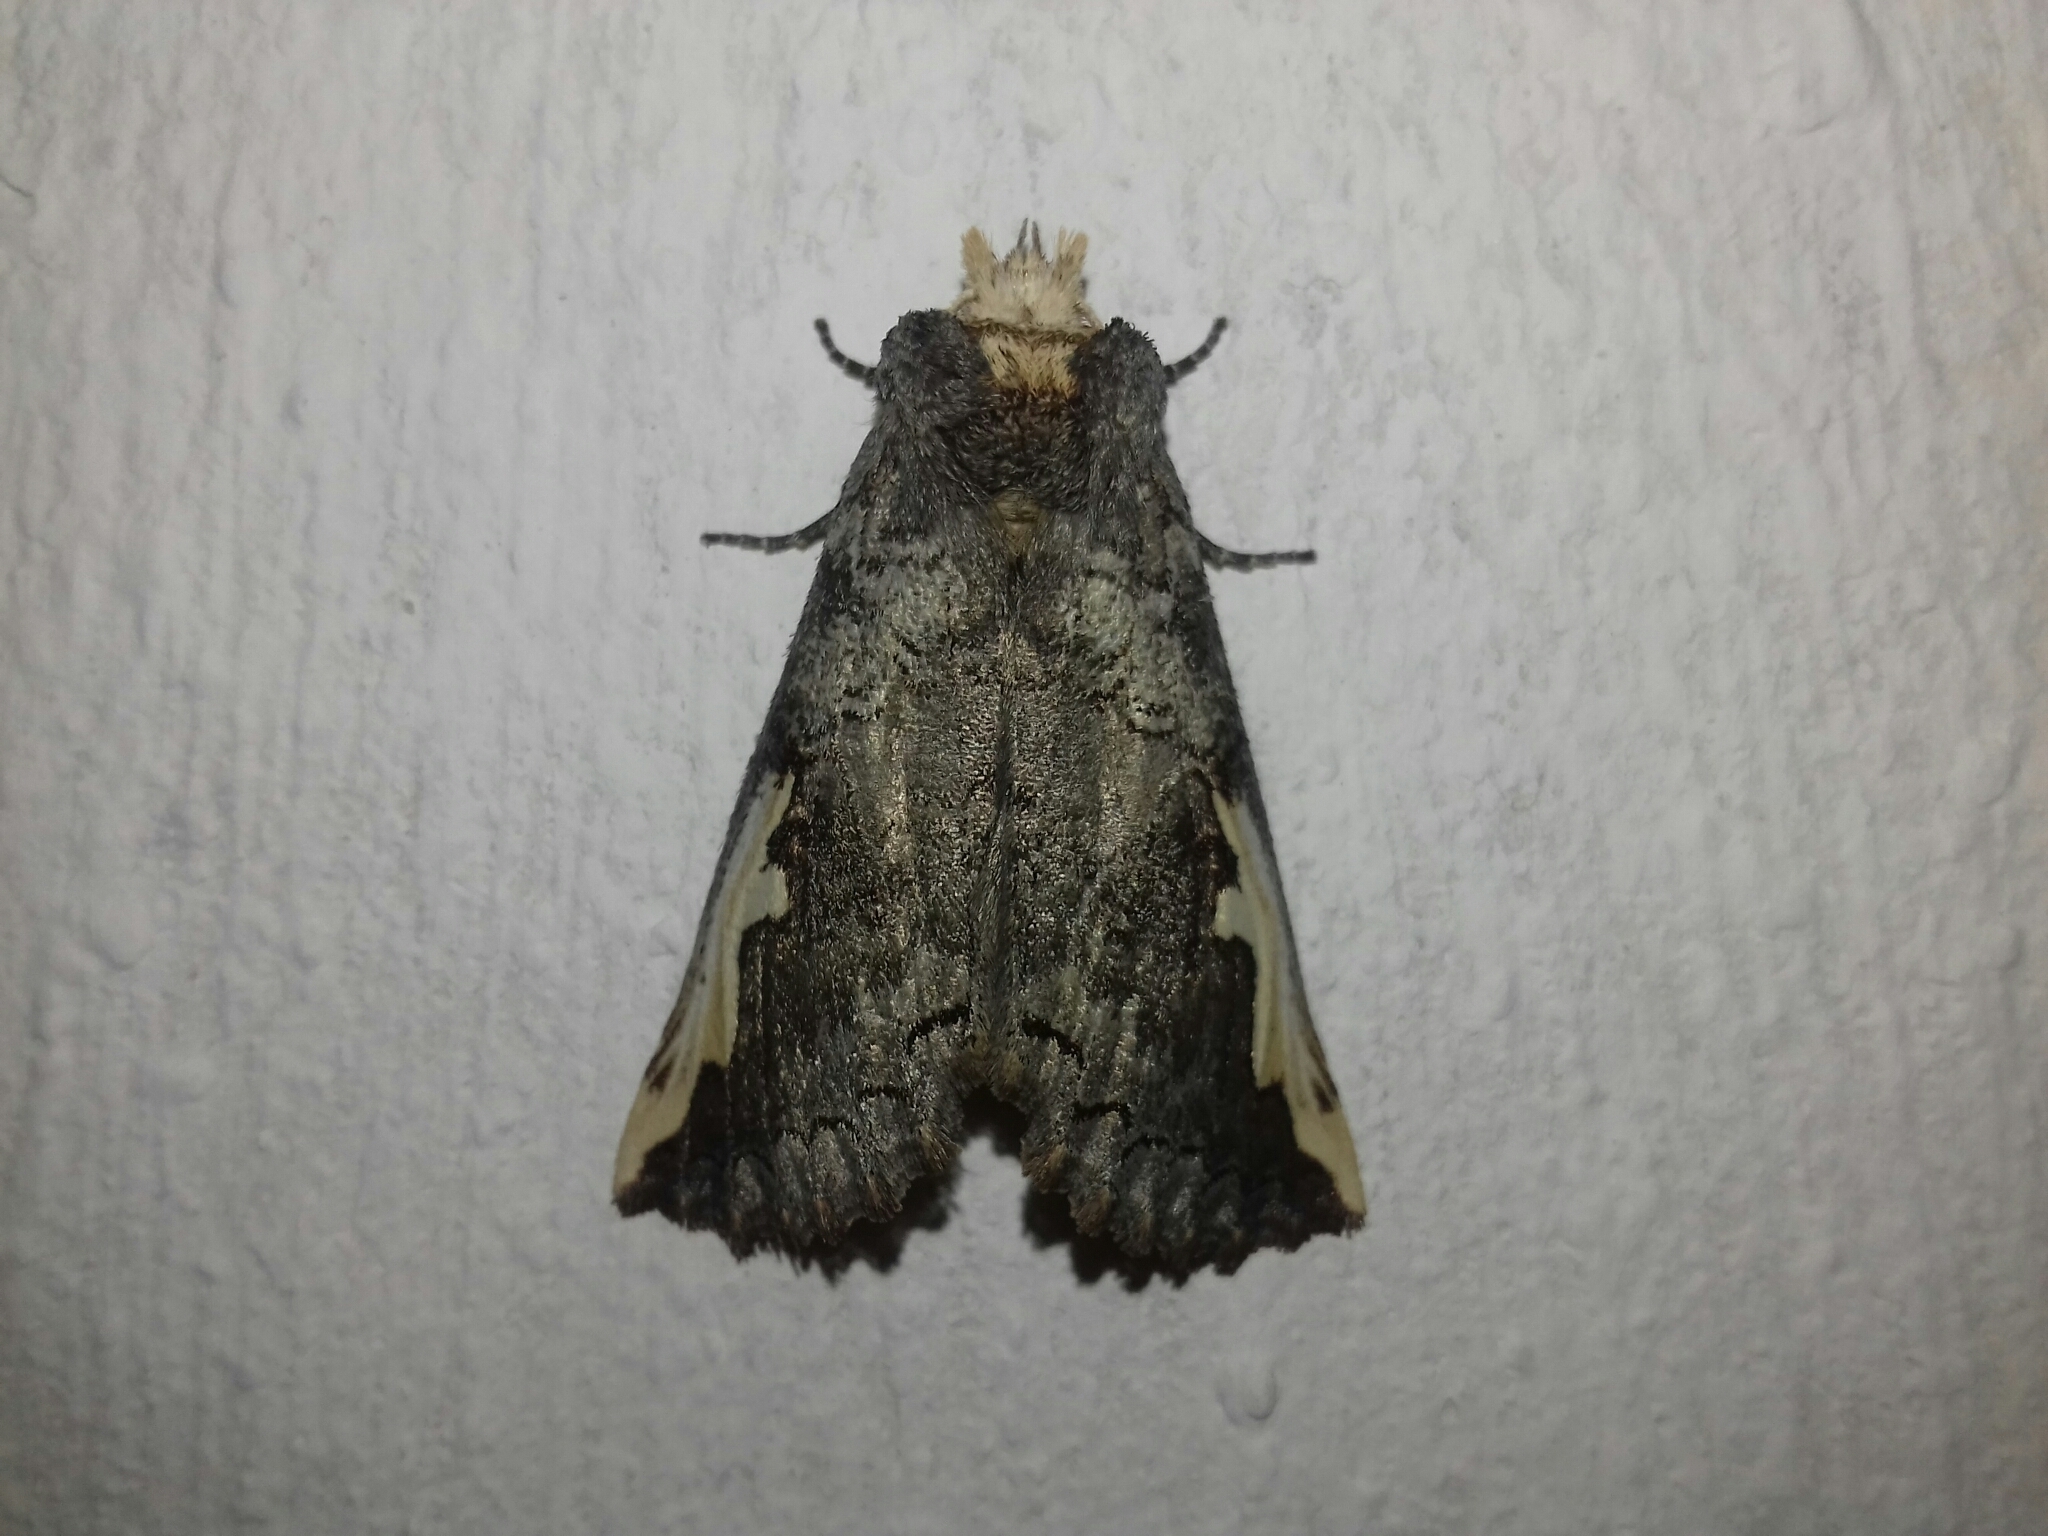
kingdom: Animalia
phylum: Arthropoda
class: Insecta
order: Lepidoptera
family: Notodontidae
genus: Symmerista
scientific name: Symmerista
